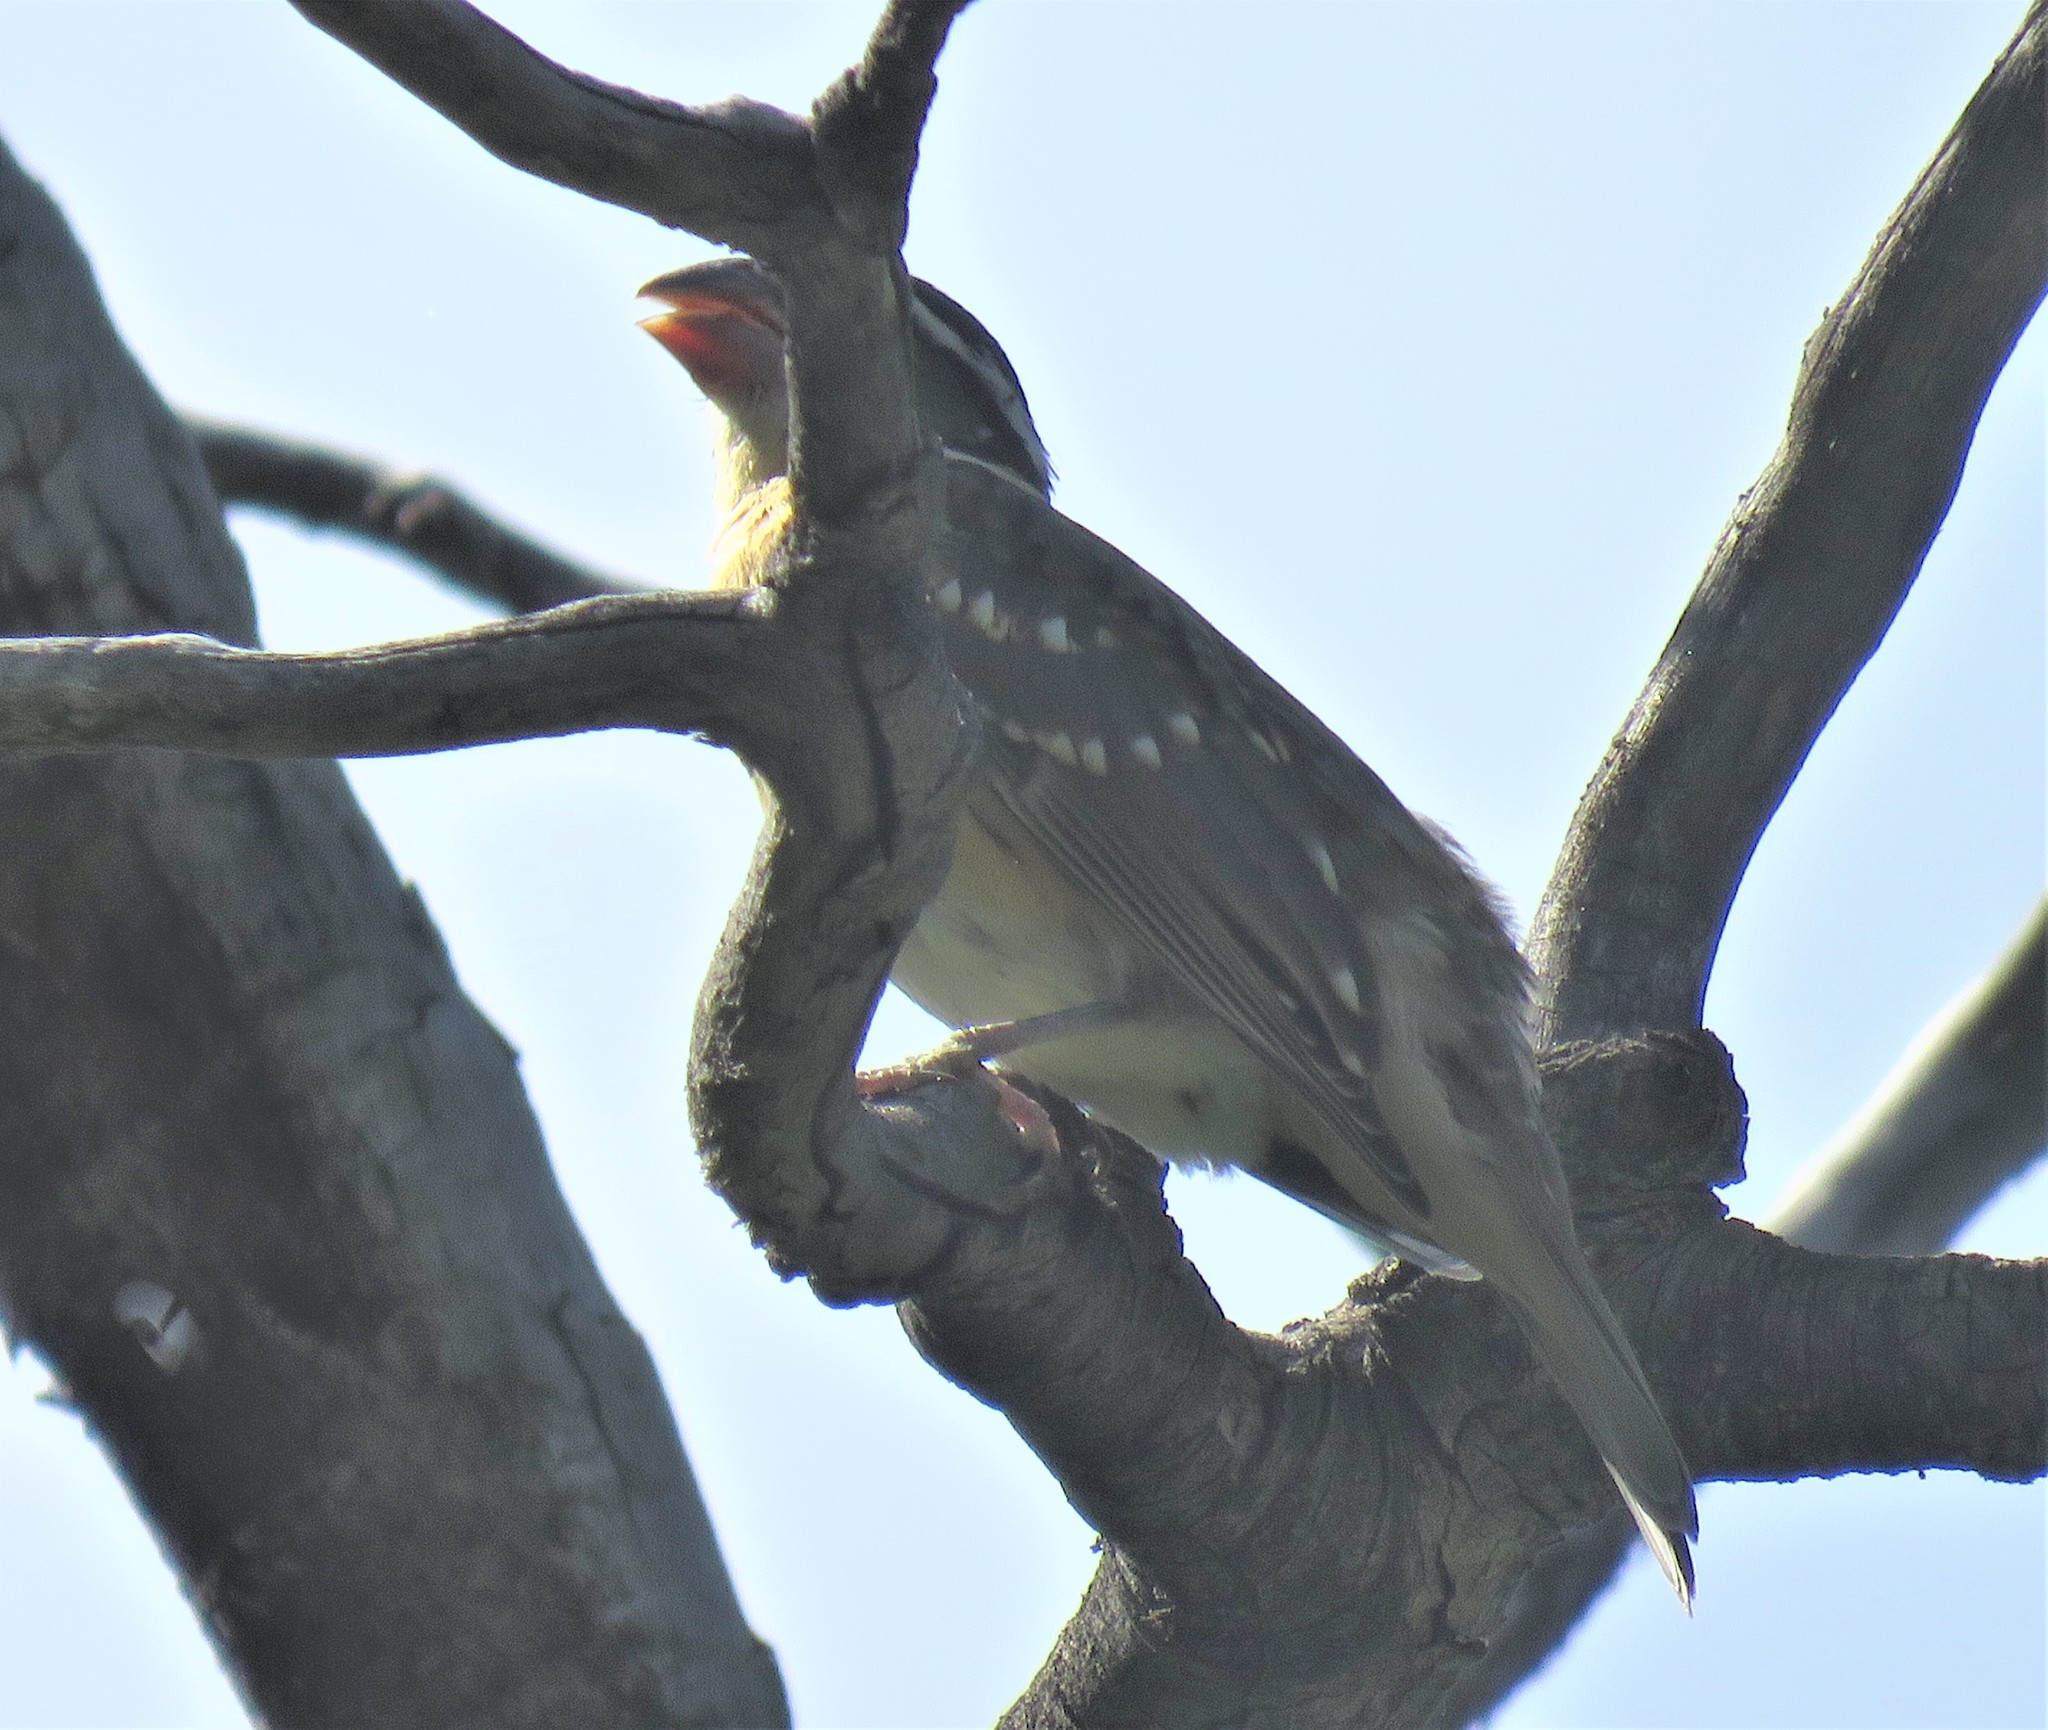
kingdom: Animalia
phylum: Chordata
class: Aves
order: Passeriformes
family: Cardinalidae
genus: Pheucticus
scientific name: Pheucticus melanocephalus
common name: Black-headed grosbeak
